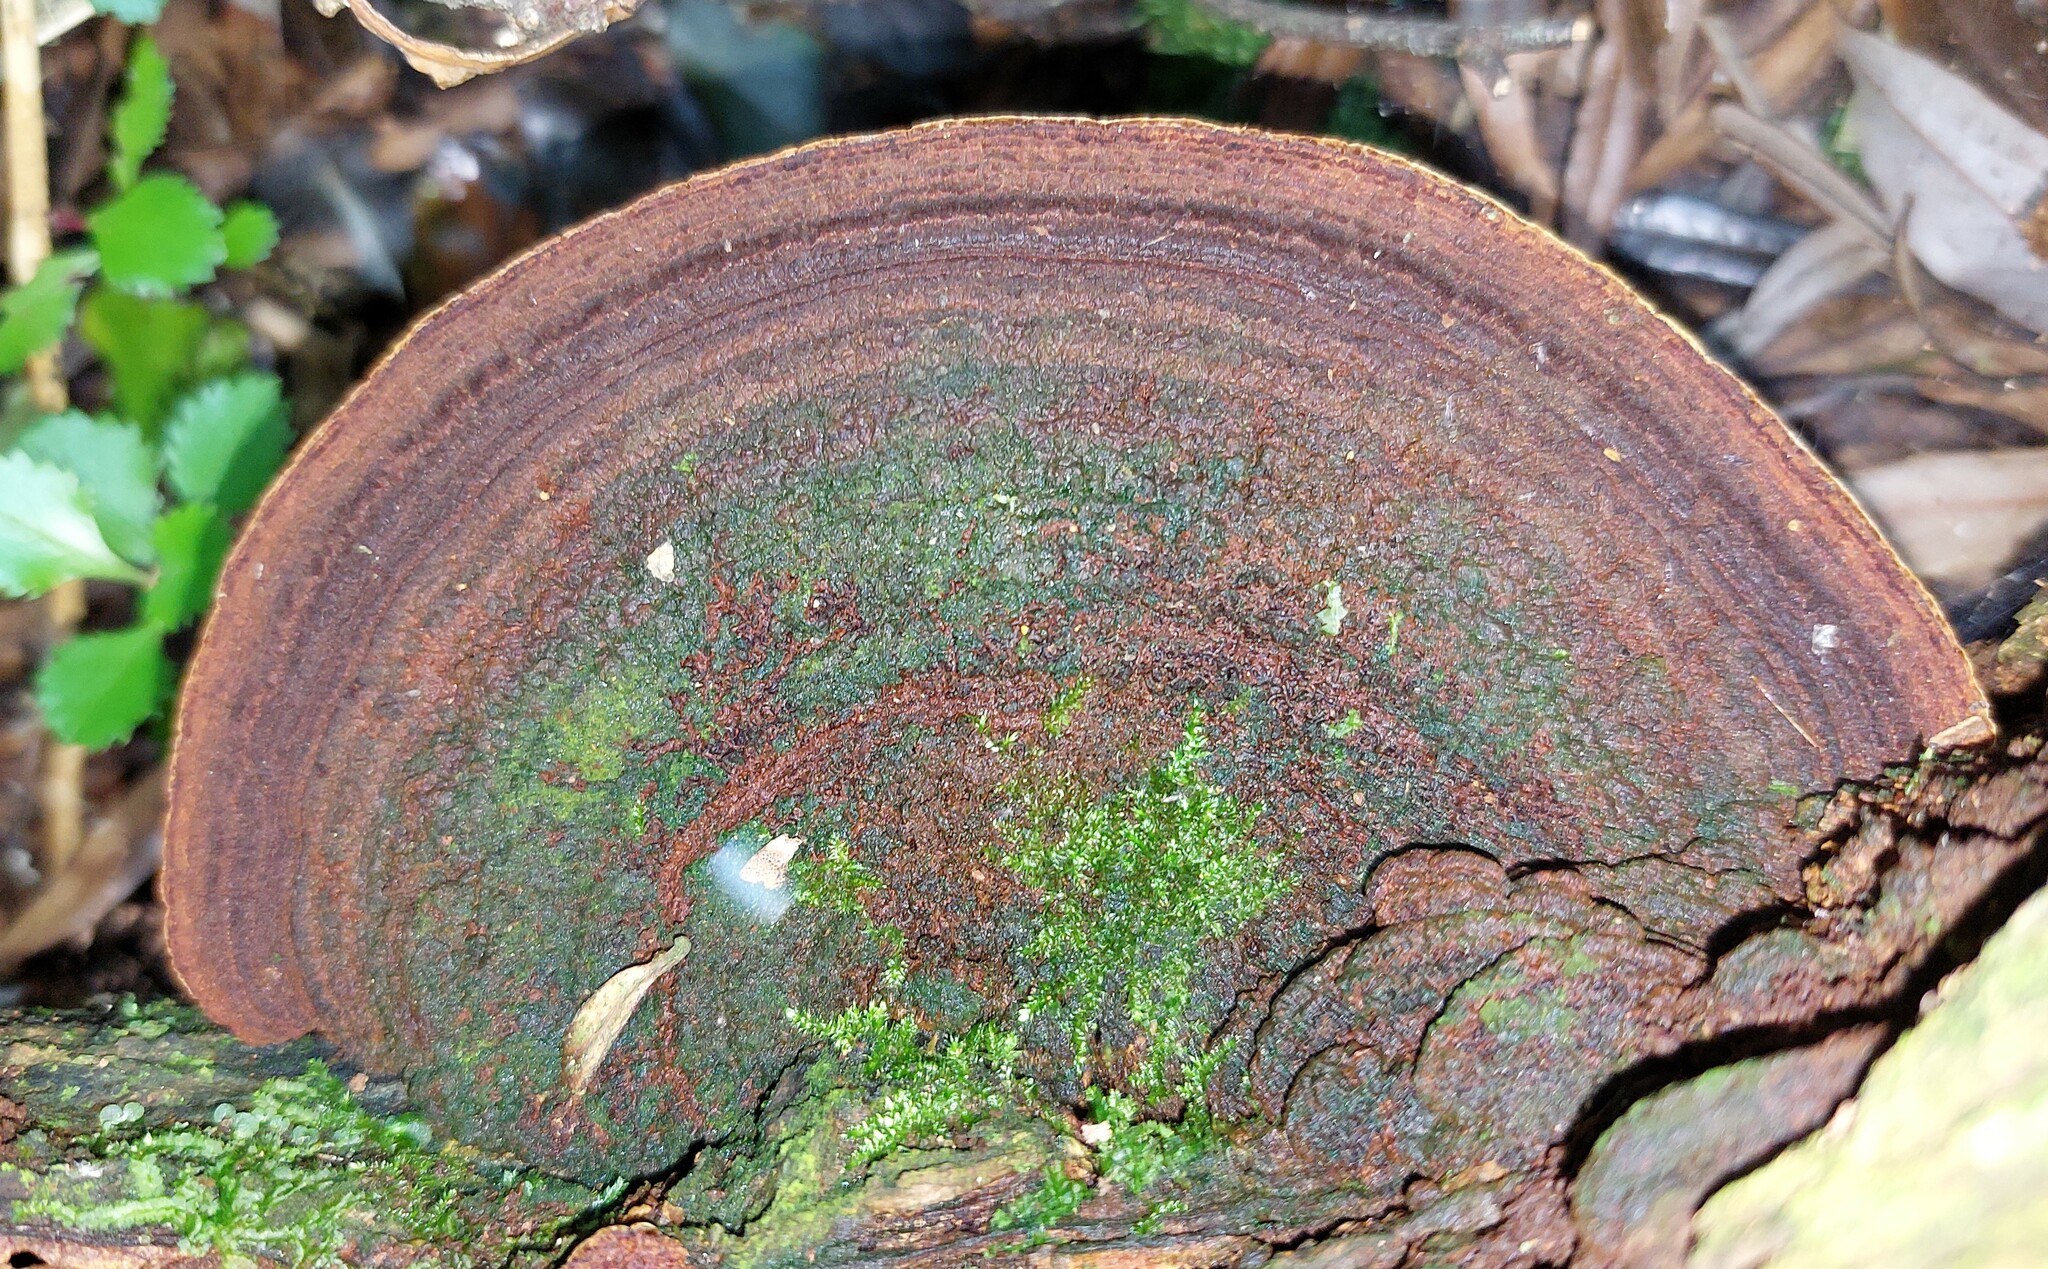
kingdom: Fungi
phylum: Basidiomycota
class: Agaricomycetes
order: Hymenochaetales
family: Hymenochaetaceae
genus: Fuscoporia
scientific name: Fuscoporia wahlbergii
